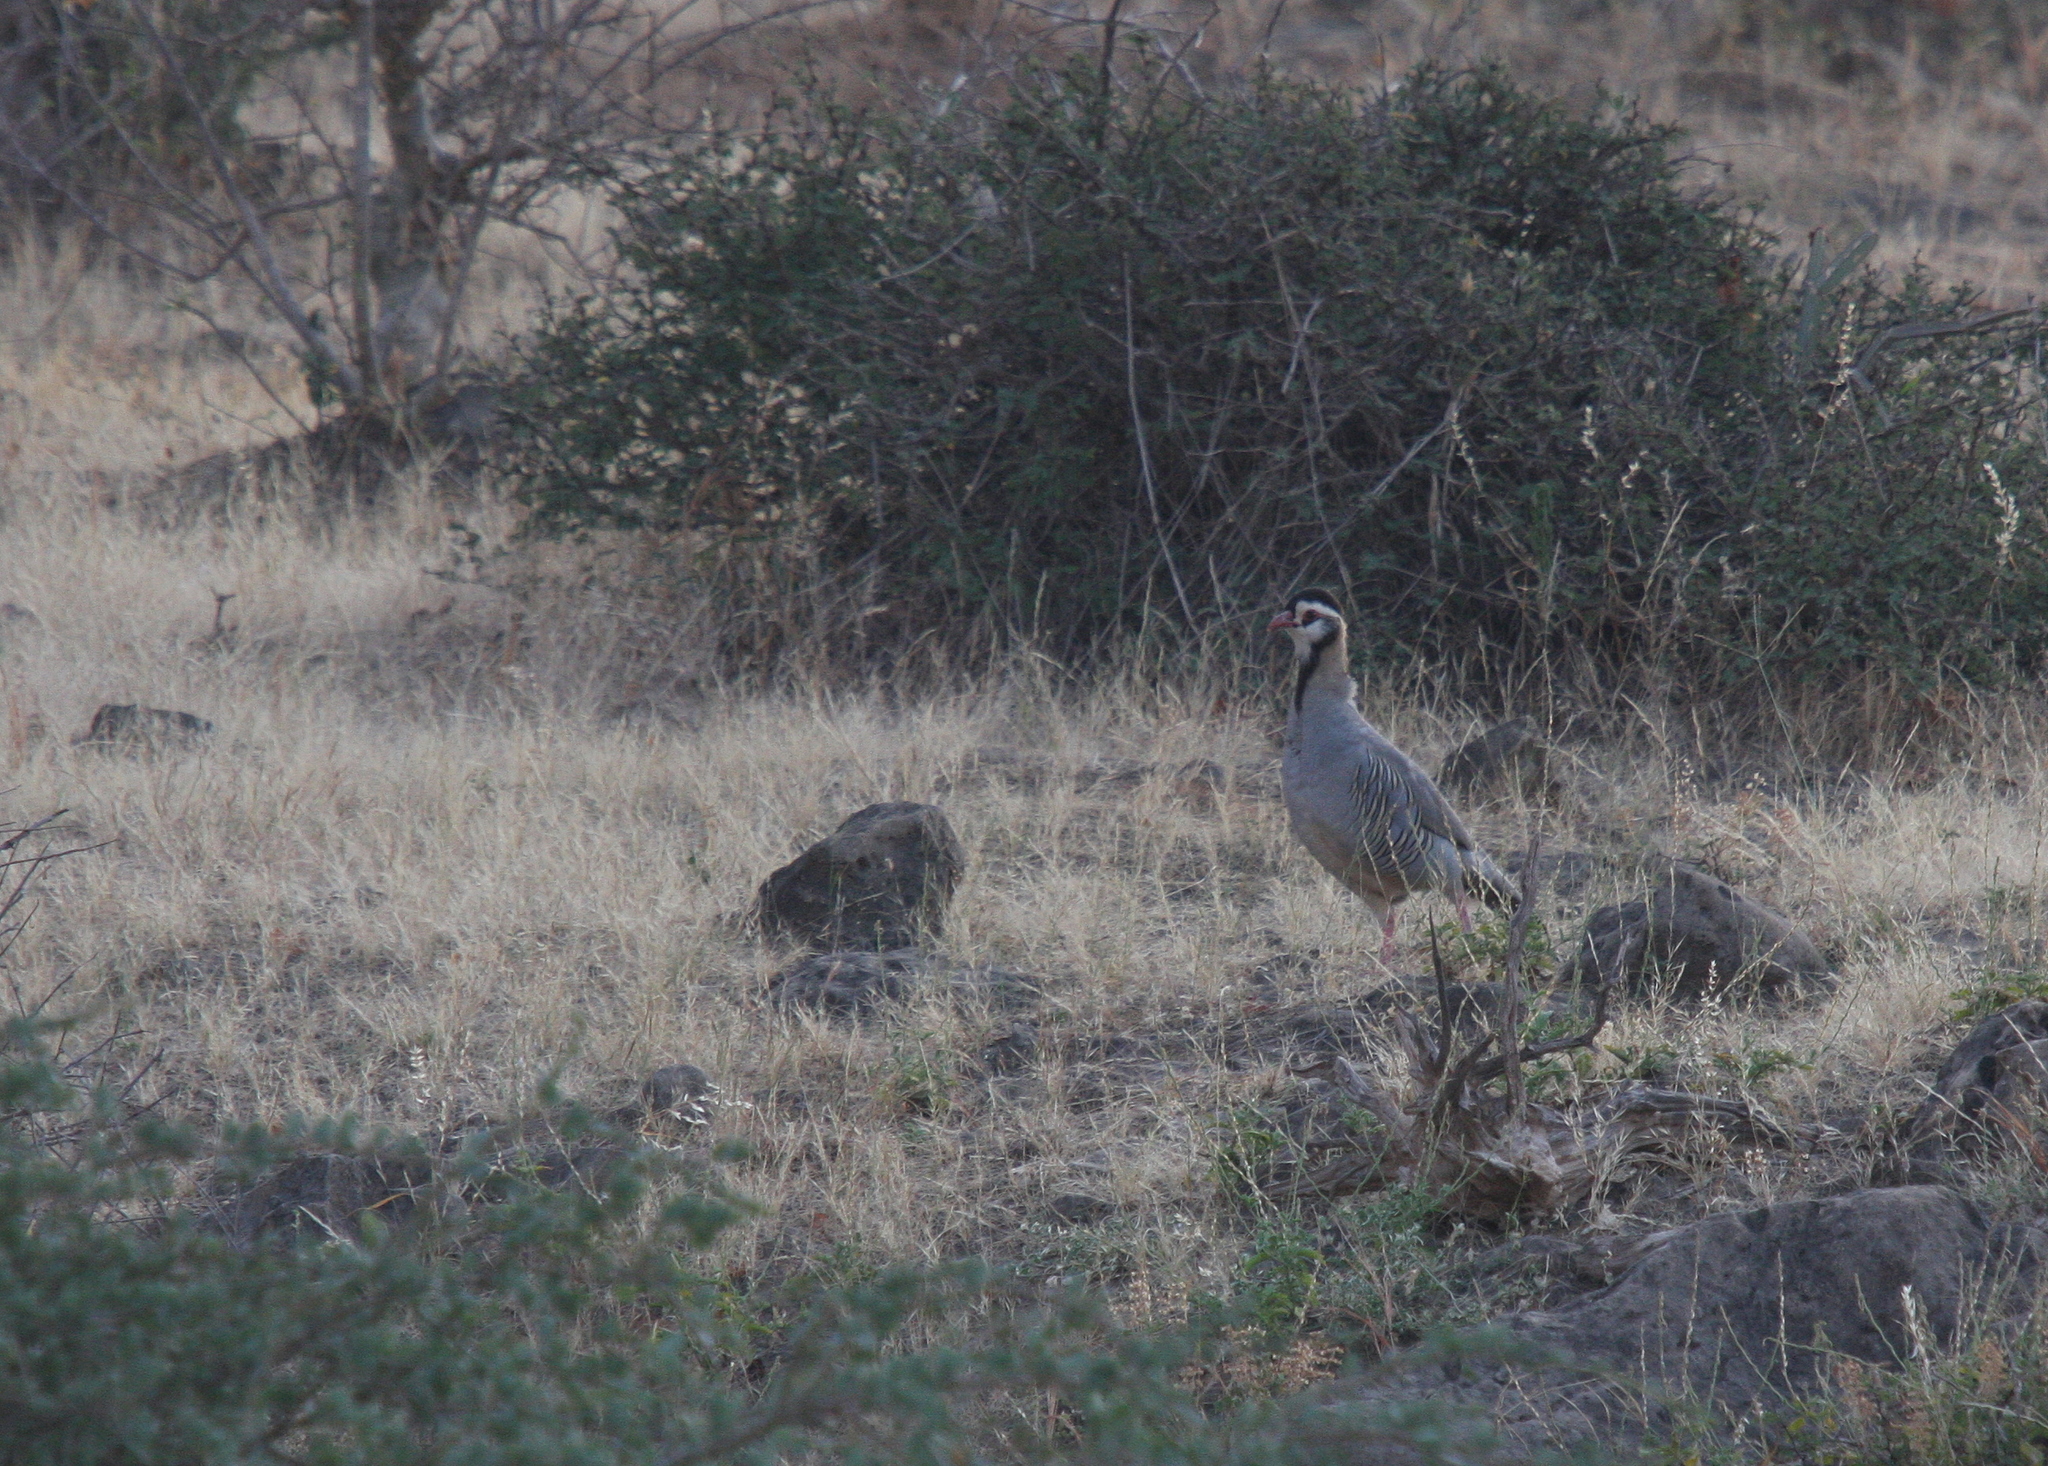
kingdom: Animalia
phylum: Chordata
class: Aves
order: Galliformes
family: Phasianidae
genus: Alectoris
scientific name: Alectoris melanocephala
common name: Arabian partridge
